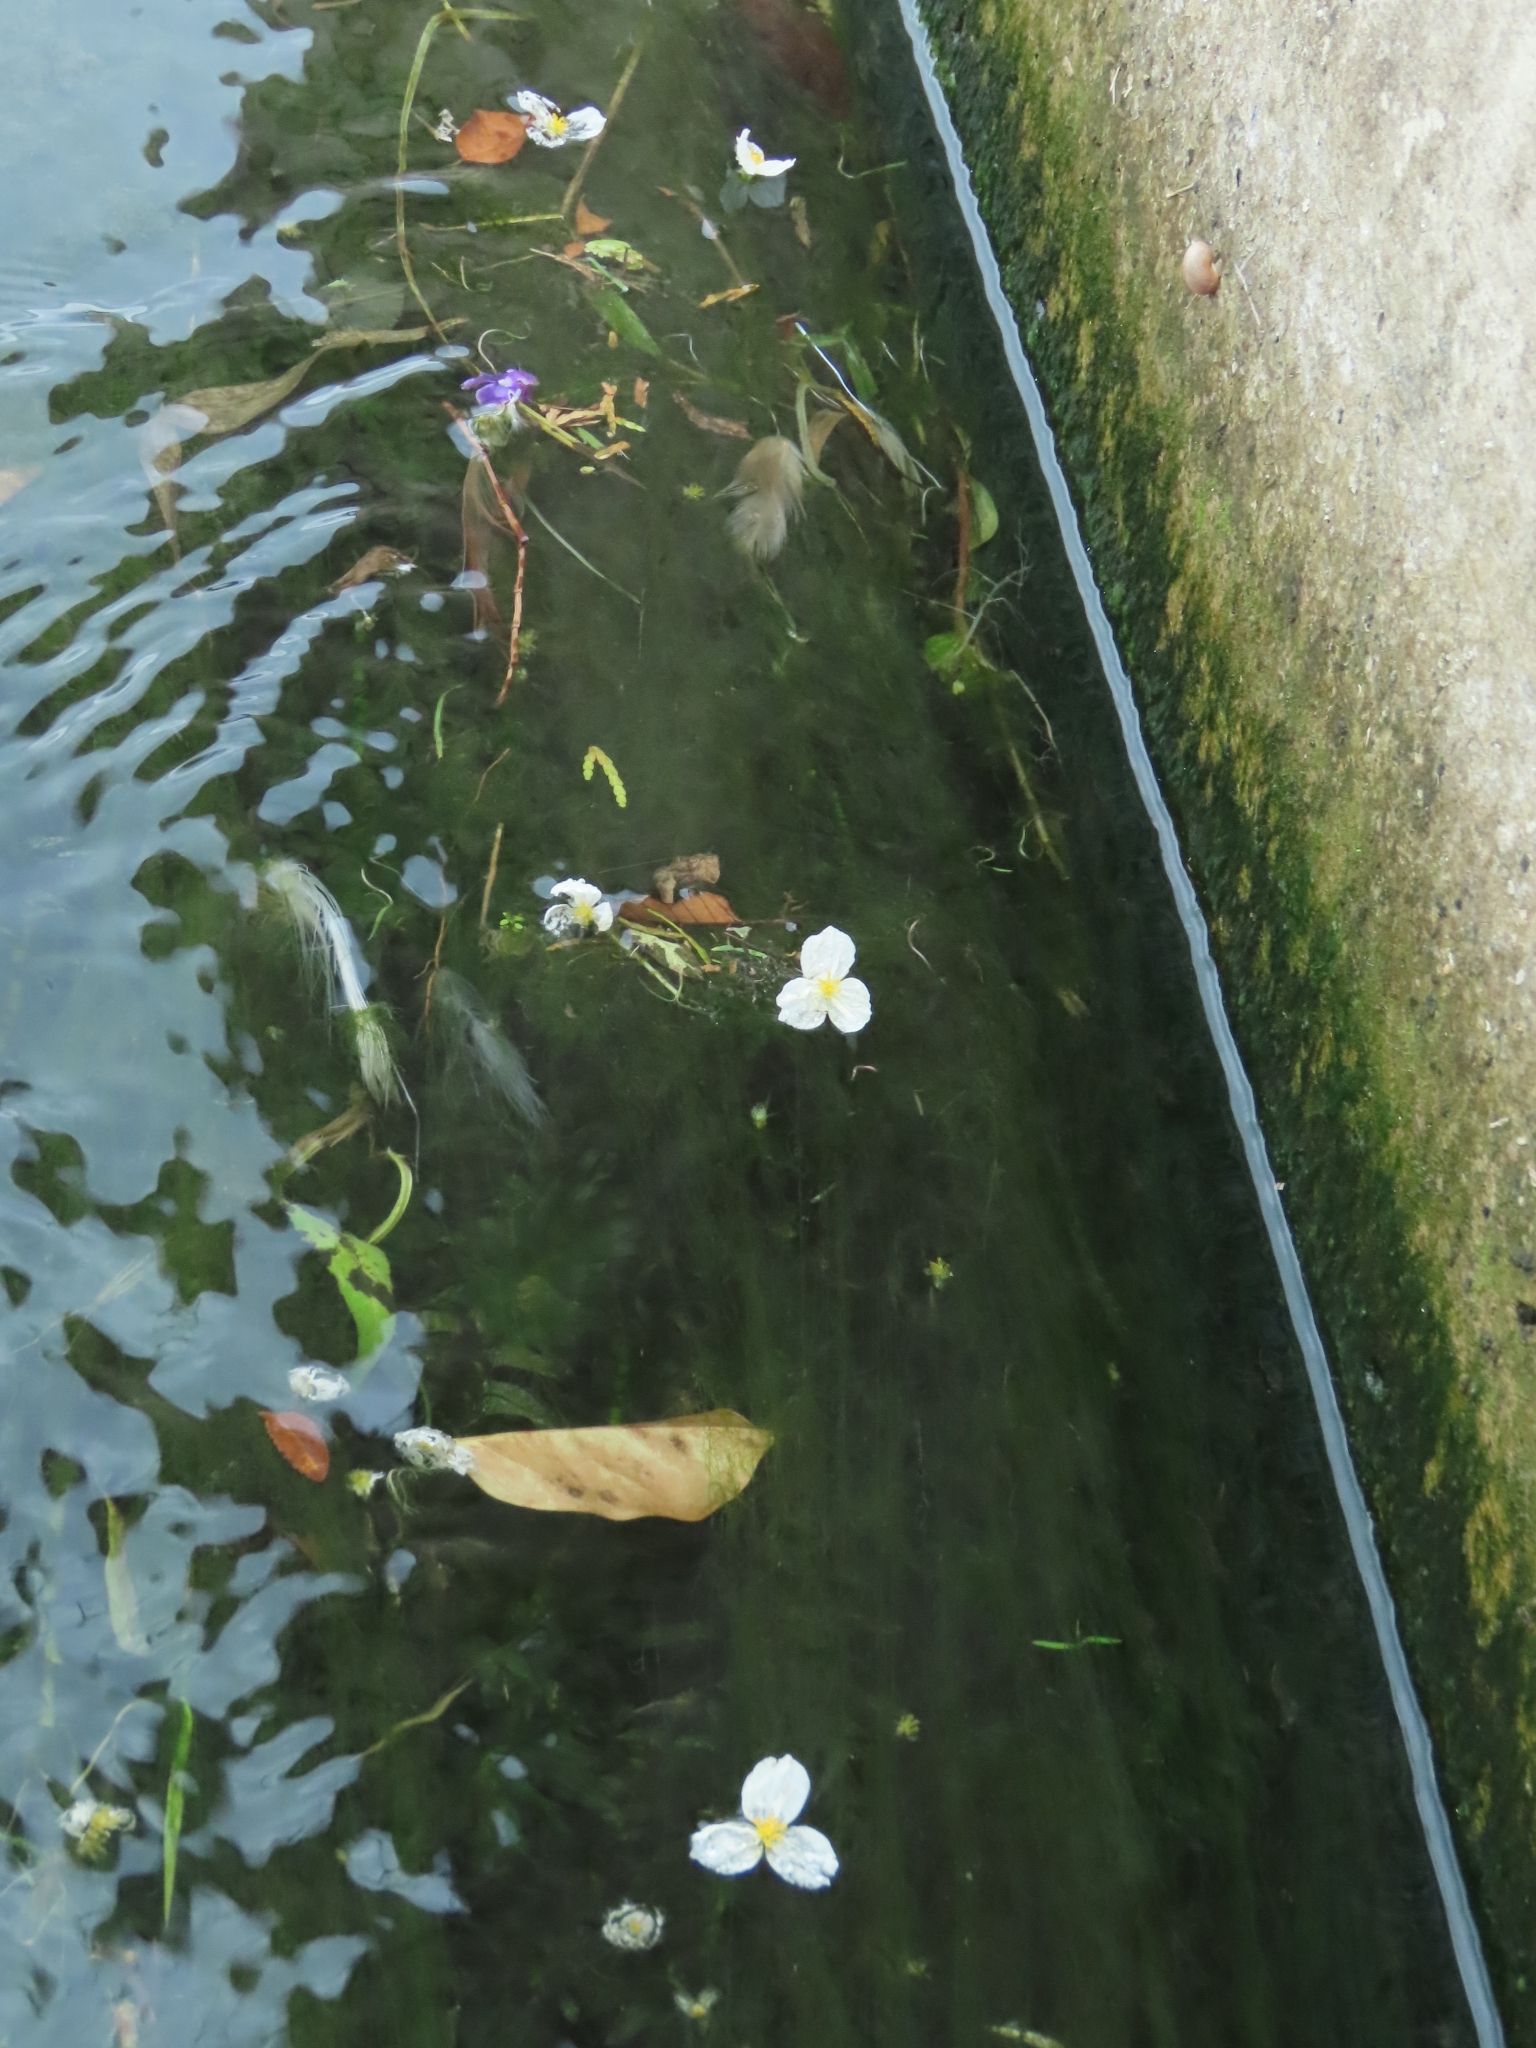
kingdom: Plantae
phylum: Tracheophyta
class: Liliopsida
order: Alismatales
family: Hydrocharitaceae
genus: Elodea
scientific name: Elodea densa
